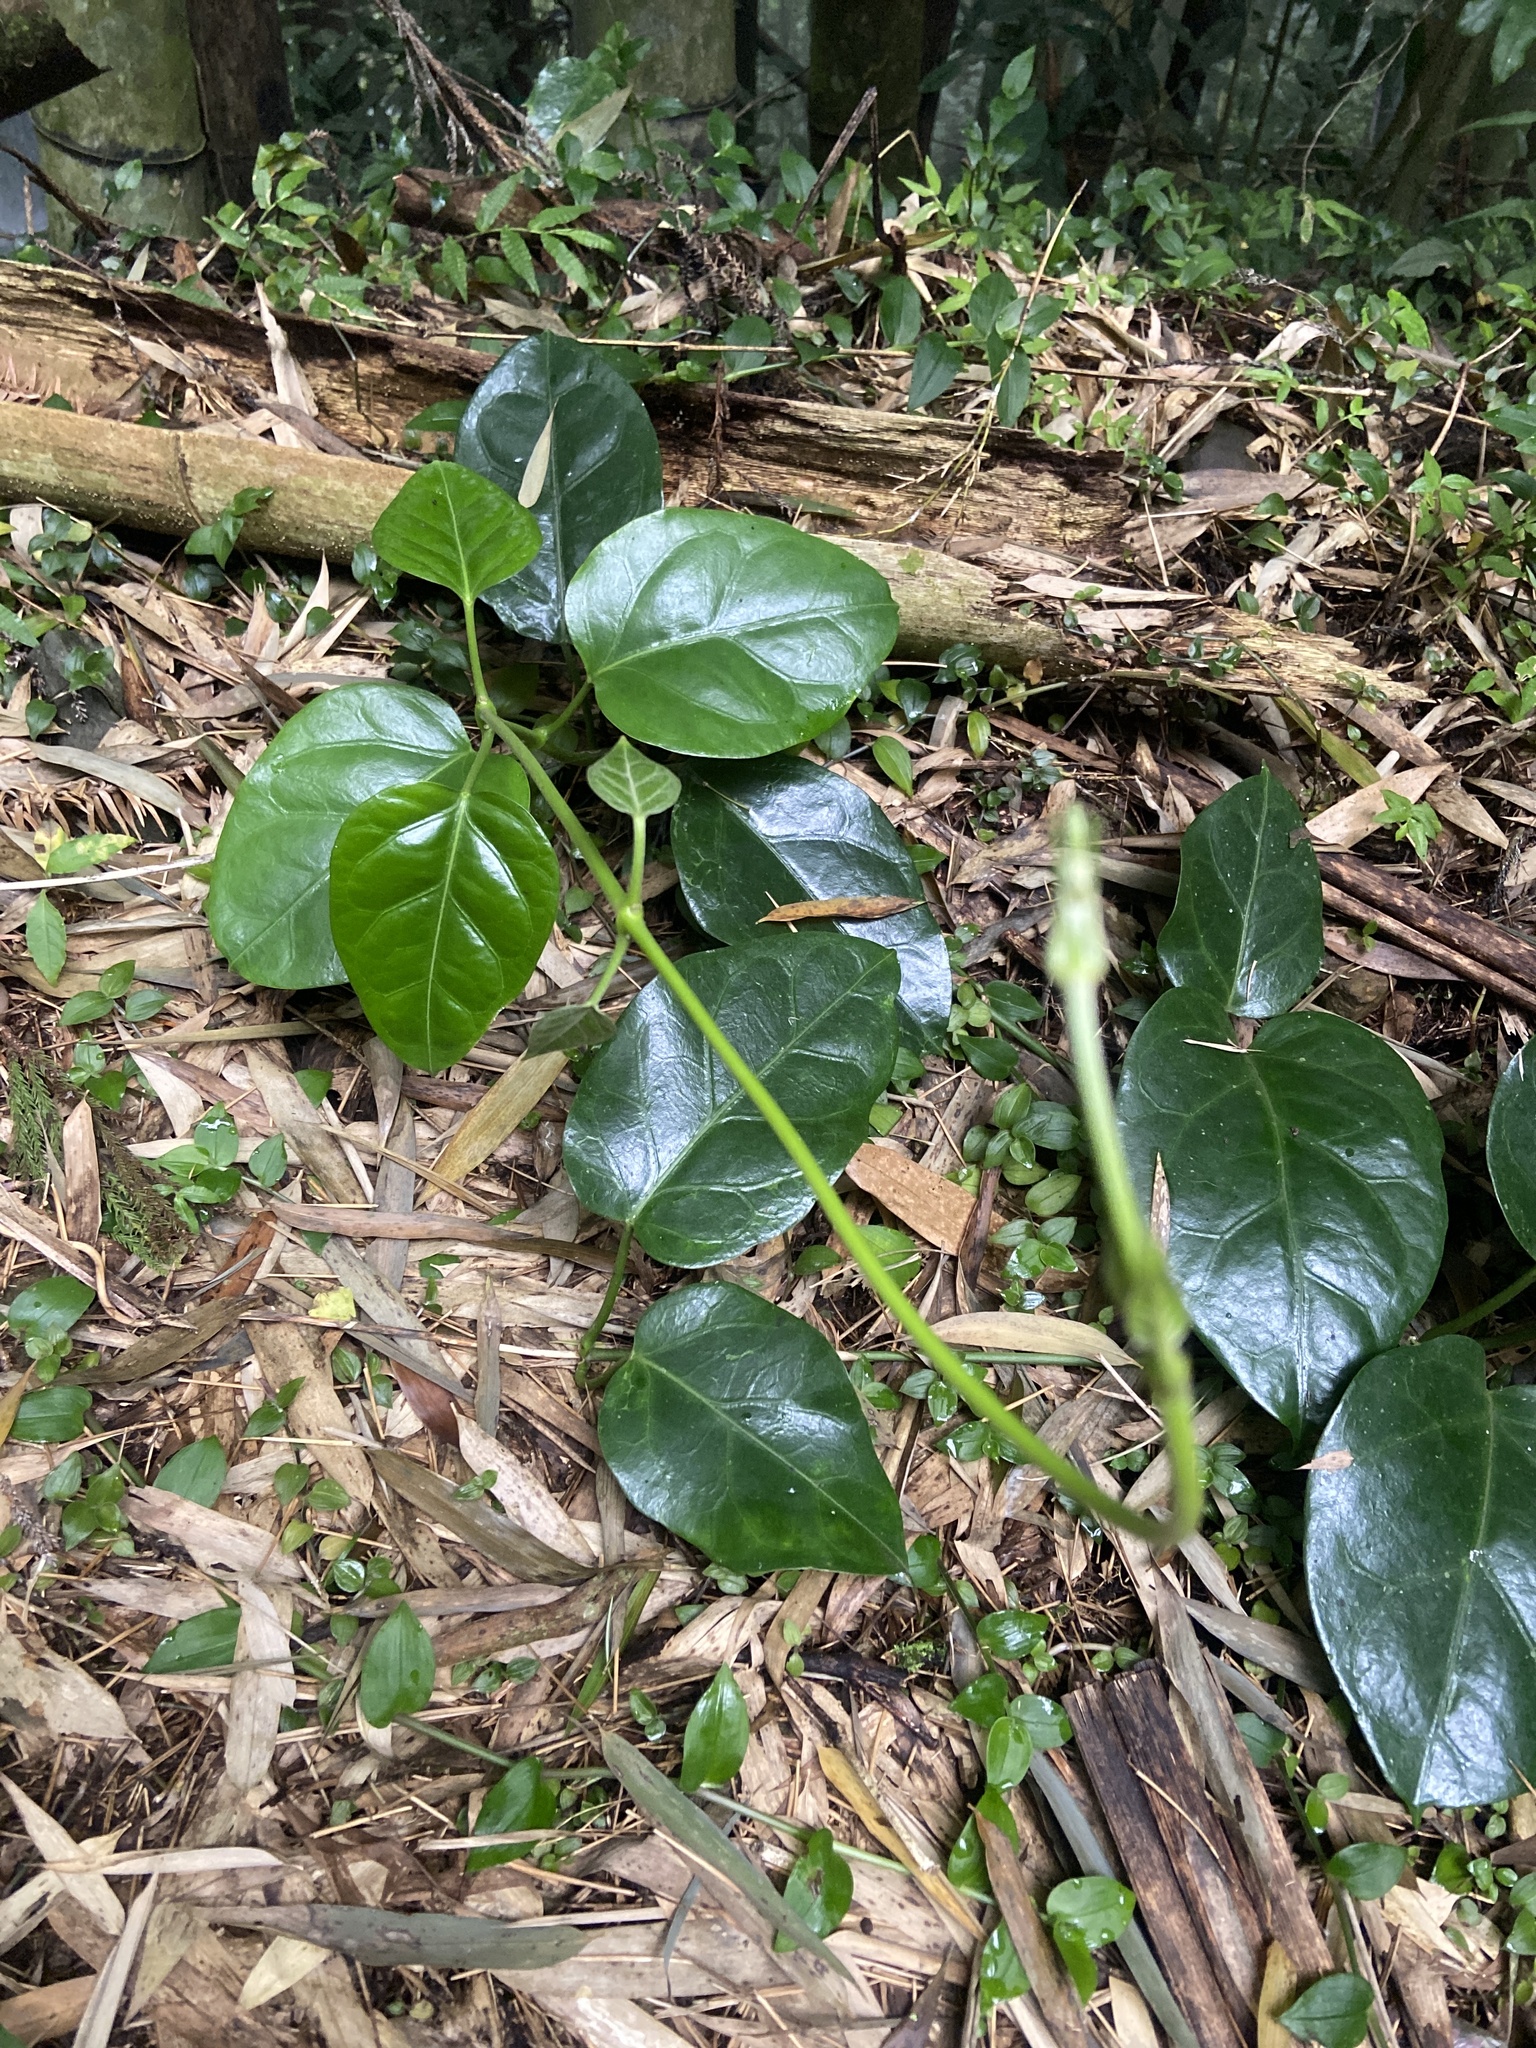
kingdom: Plantae
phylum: Tracheophyta
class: Magnoliopsida
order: Gentianales
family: Apocynaceae
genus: Sinomarsdenia
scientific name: Sinomarsdenia formosana
